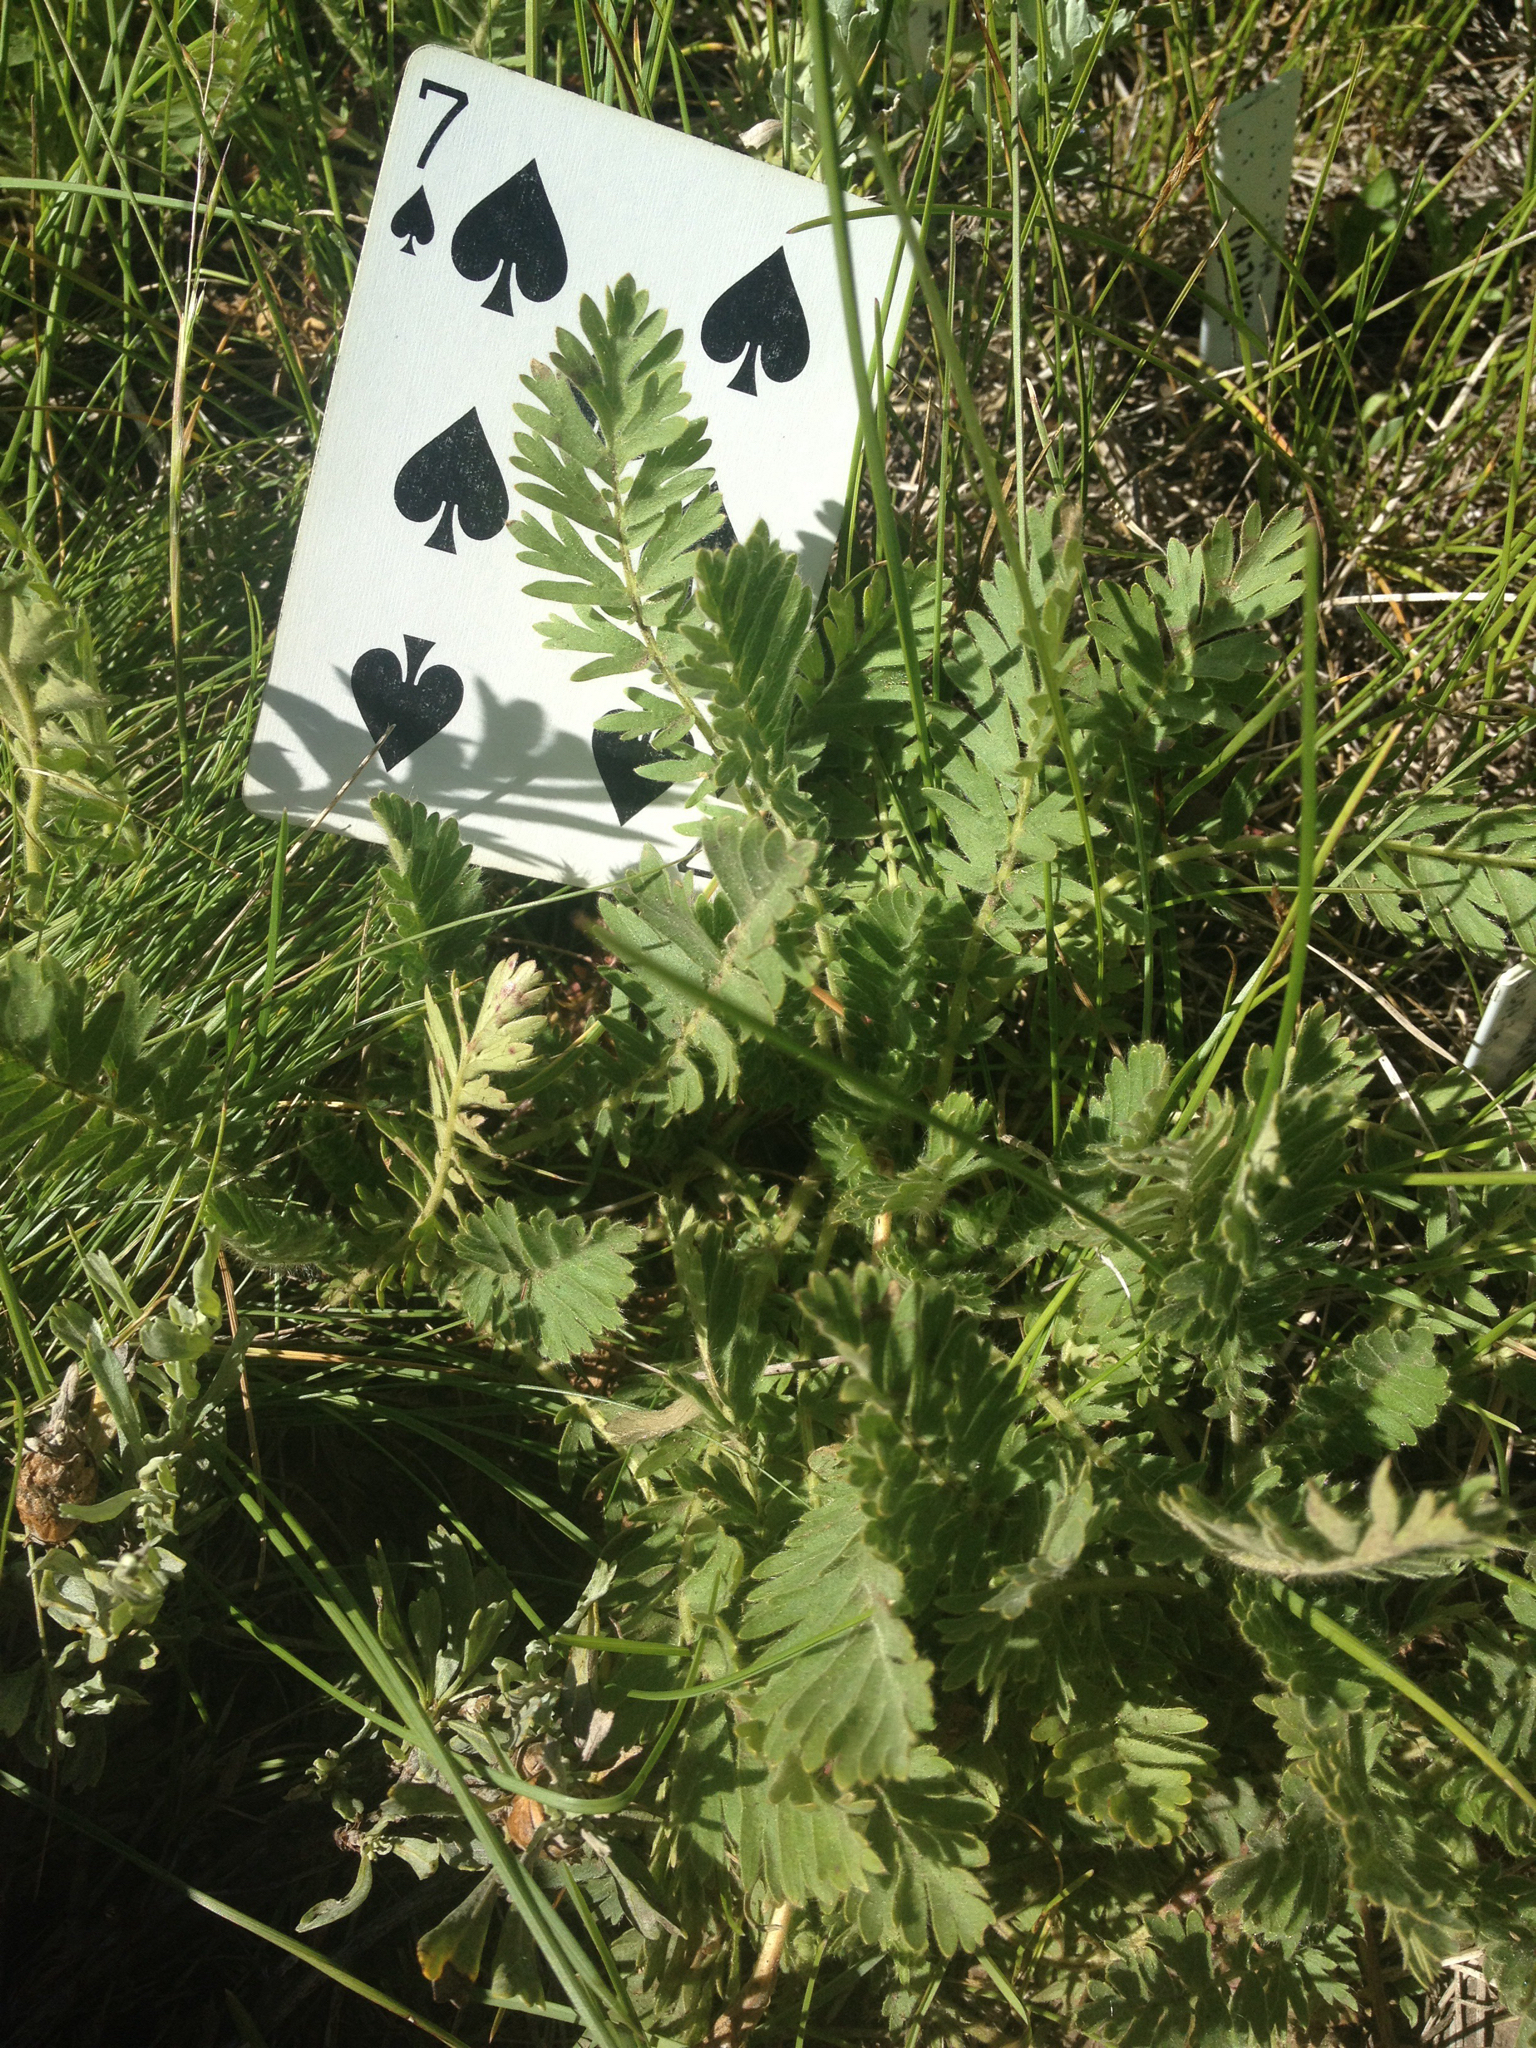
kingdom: Plantae
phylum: Tracheophyta
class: Magnoliopsida
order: Rosales
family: Rosaceae
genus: Geum
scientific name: Geum triflorum
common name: Old man's whiskers
